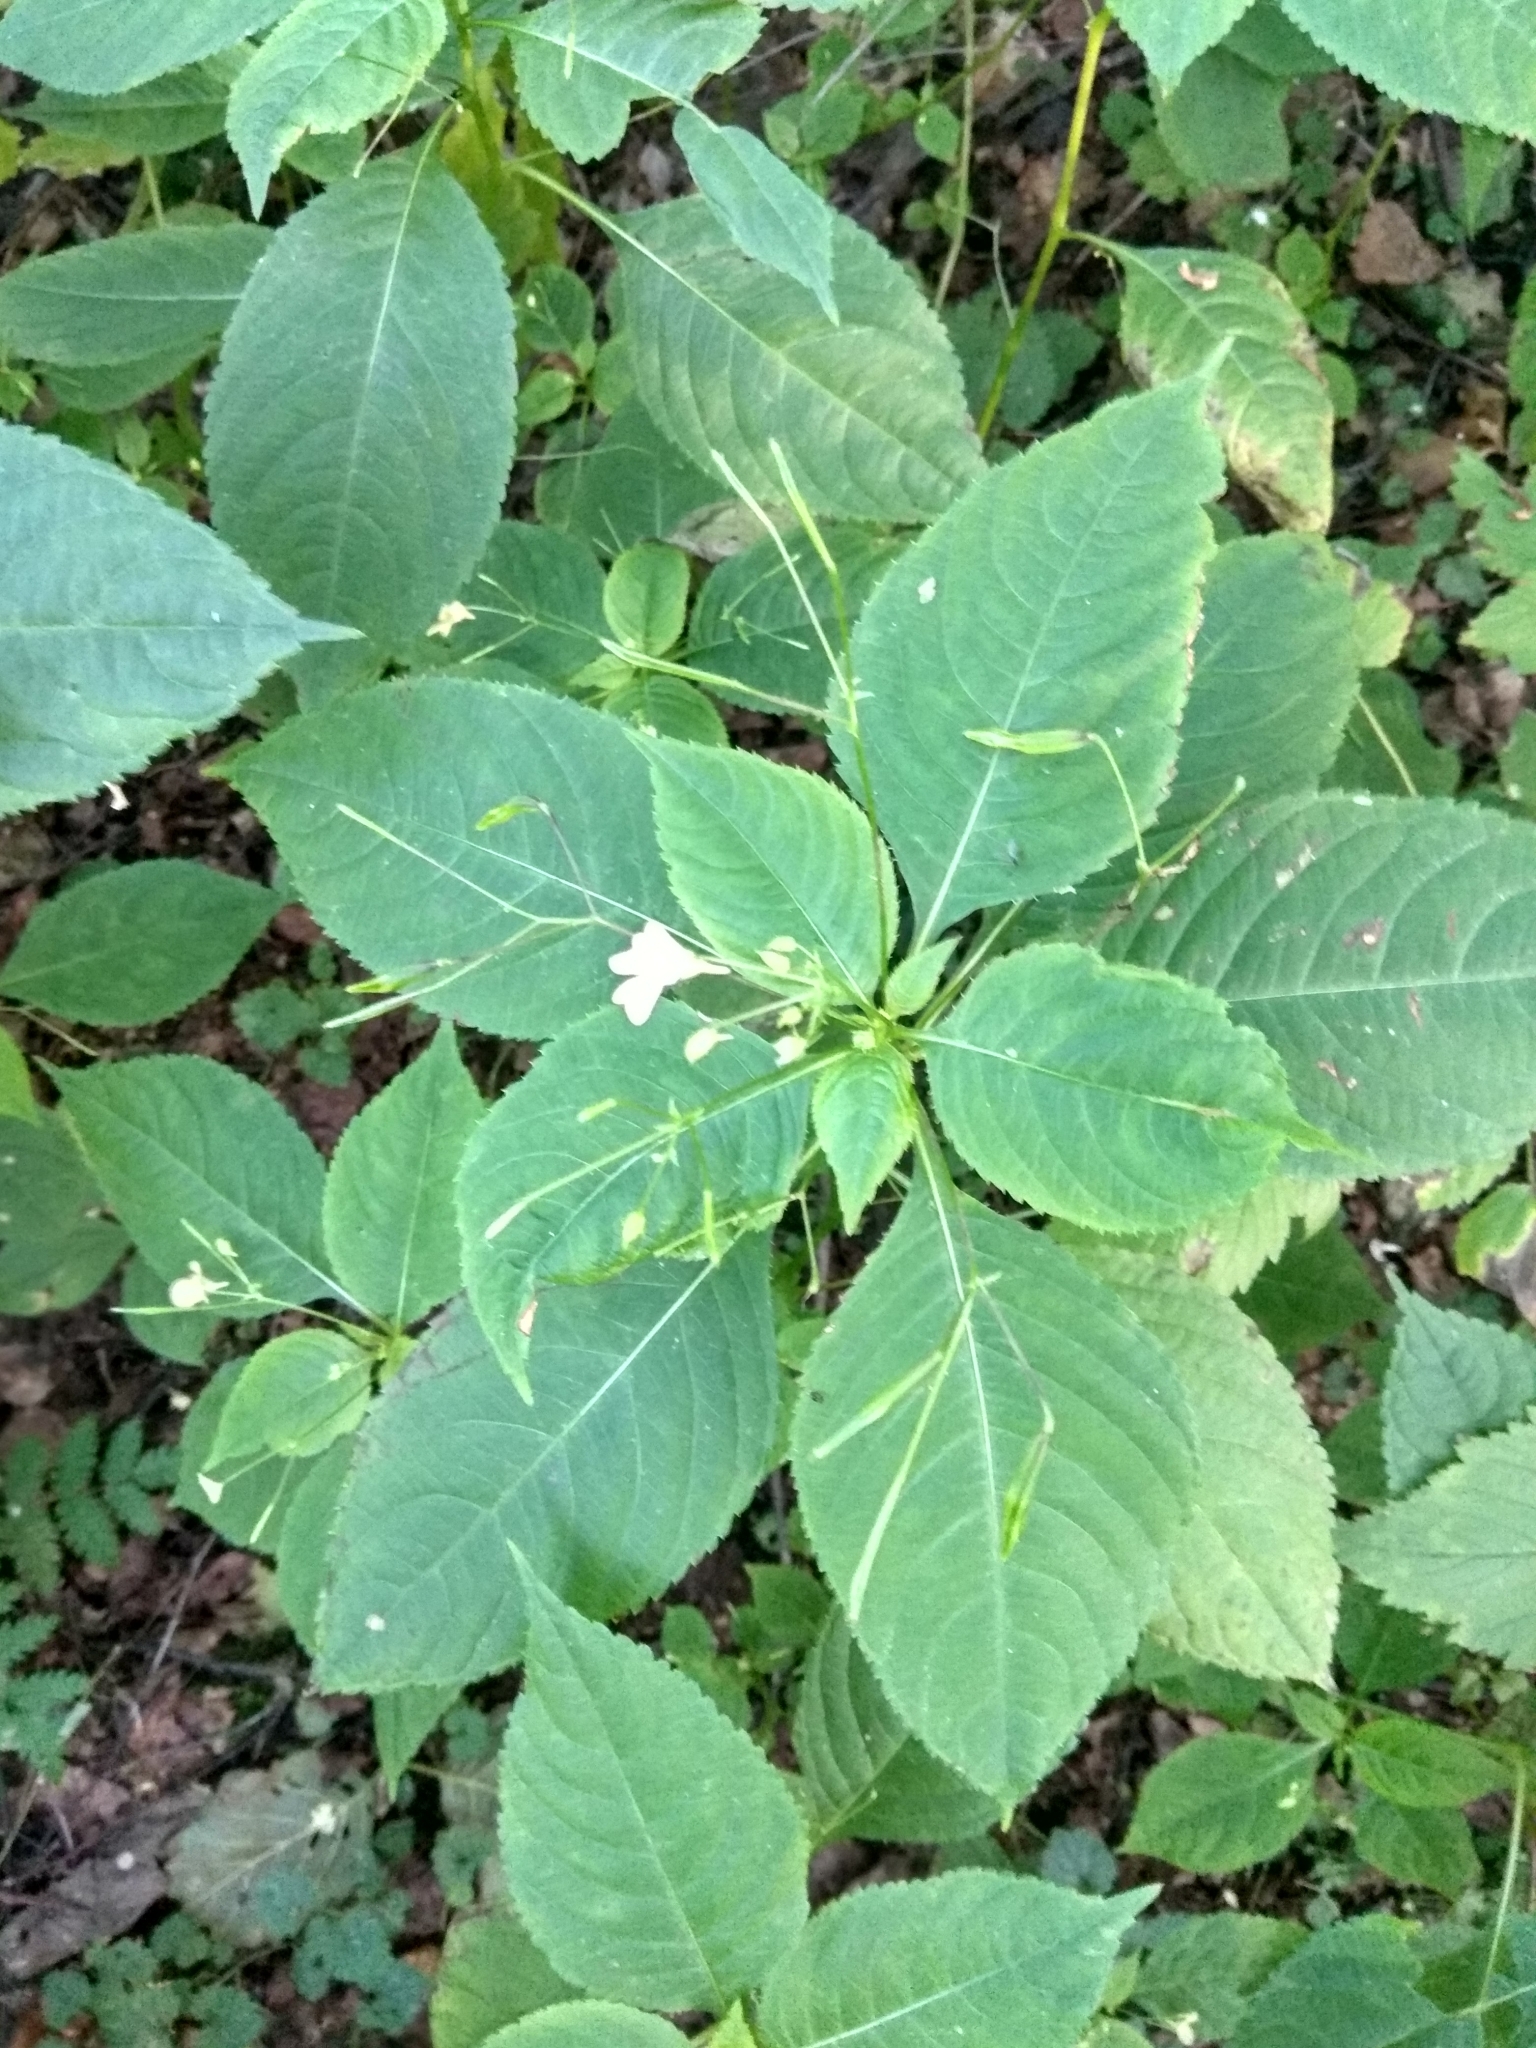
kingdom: Plantae
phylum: Tracheophyta
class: Magnoliopsida
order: Ericales
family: Balsaminaceae
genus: Impatiens
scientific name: Impatiens parviflora
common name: Small balsam
